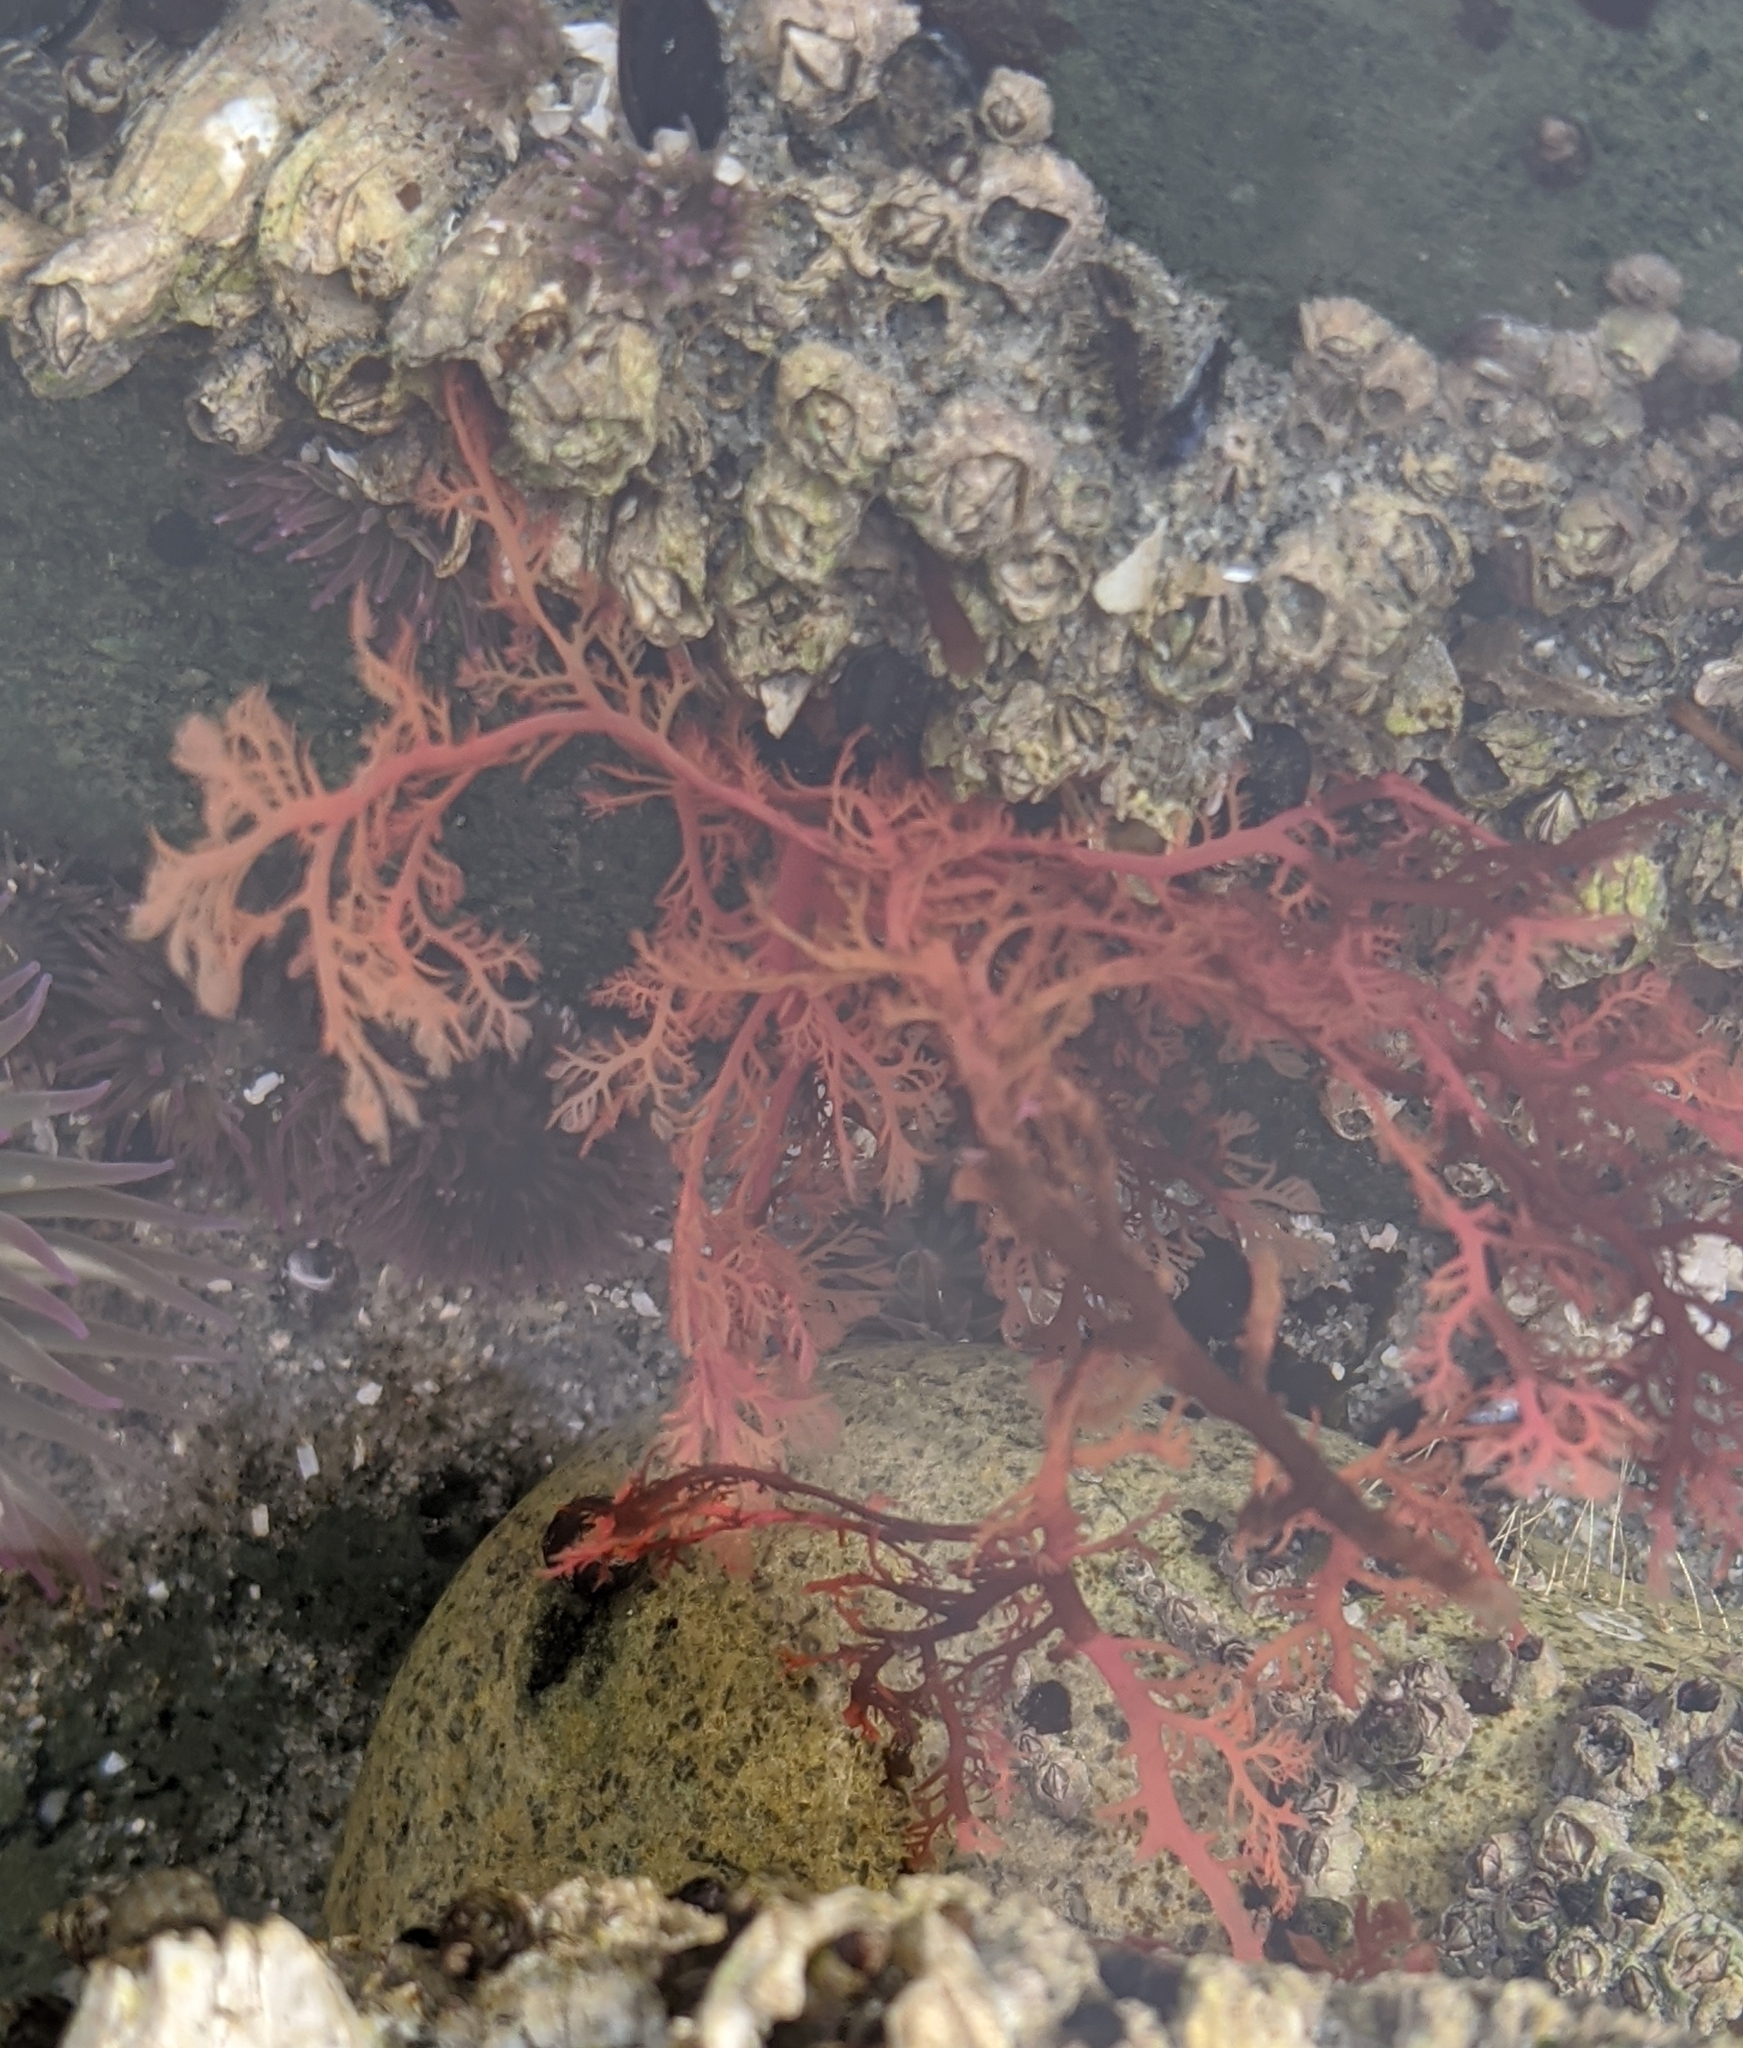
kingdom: Plantae
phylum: Rhodophyta
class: Florideophyceae
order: Plocamiales
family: Plocamiaceae
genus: Plocamium
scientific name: Plocamium cartilagineum
